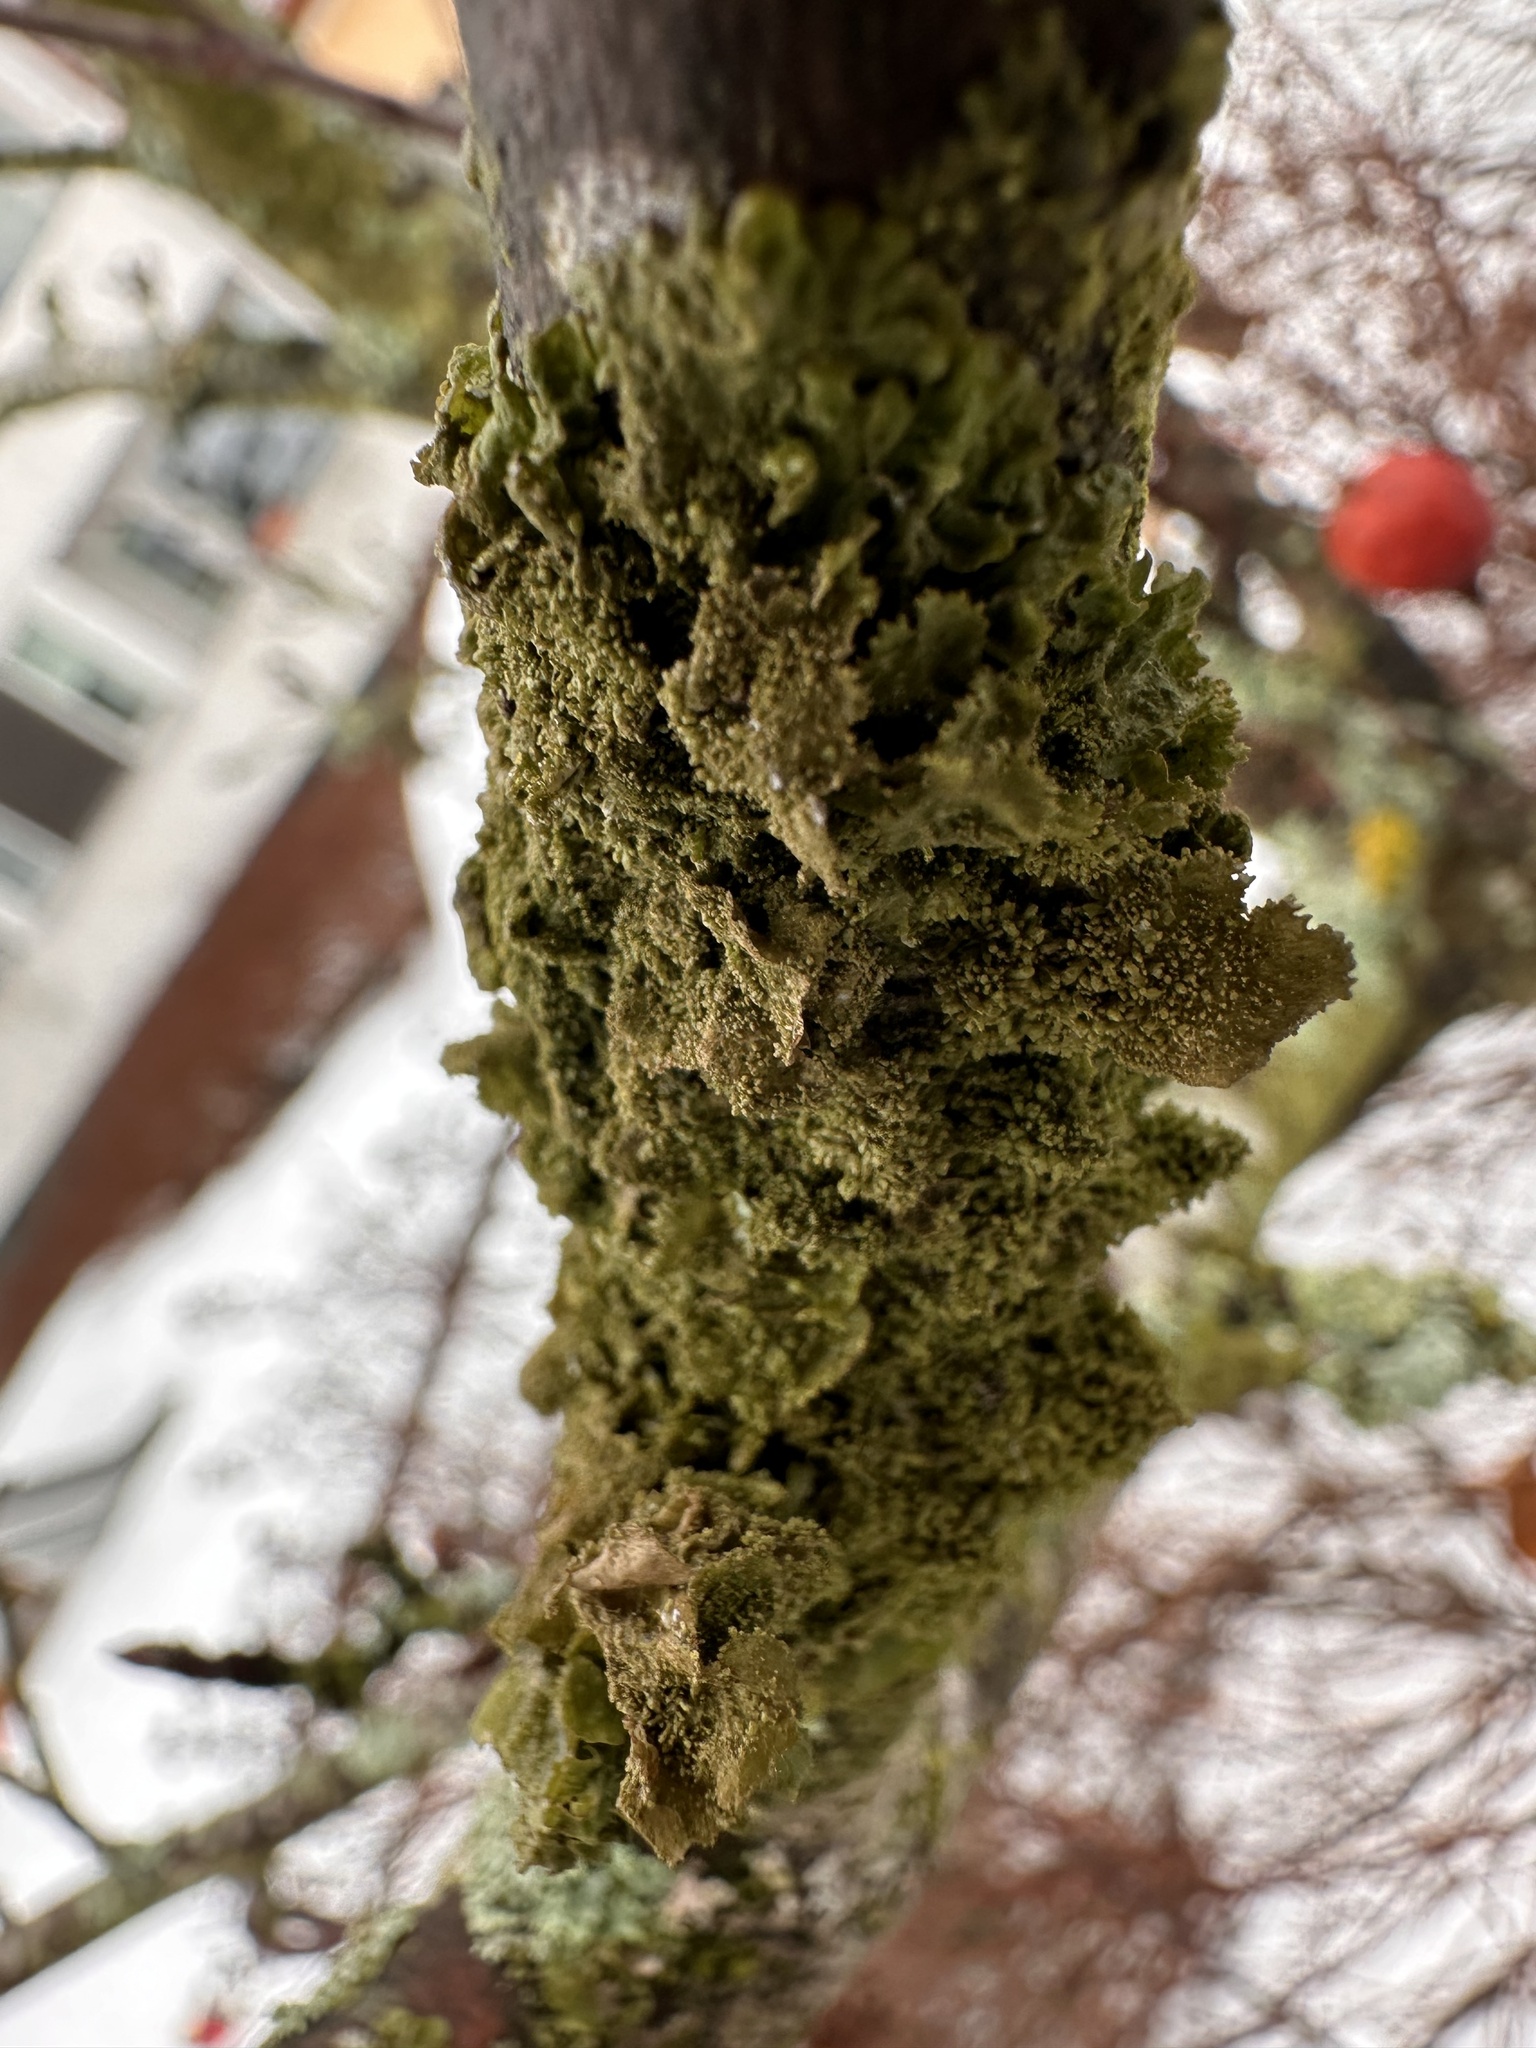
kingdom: Fungi
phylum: Ascomycota
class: Lecanoromycetes
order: Lecanorales
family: Parmeliaceae
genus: Melanohalea
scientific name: Melanohalea exasperatula
